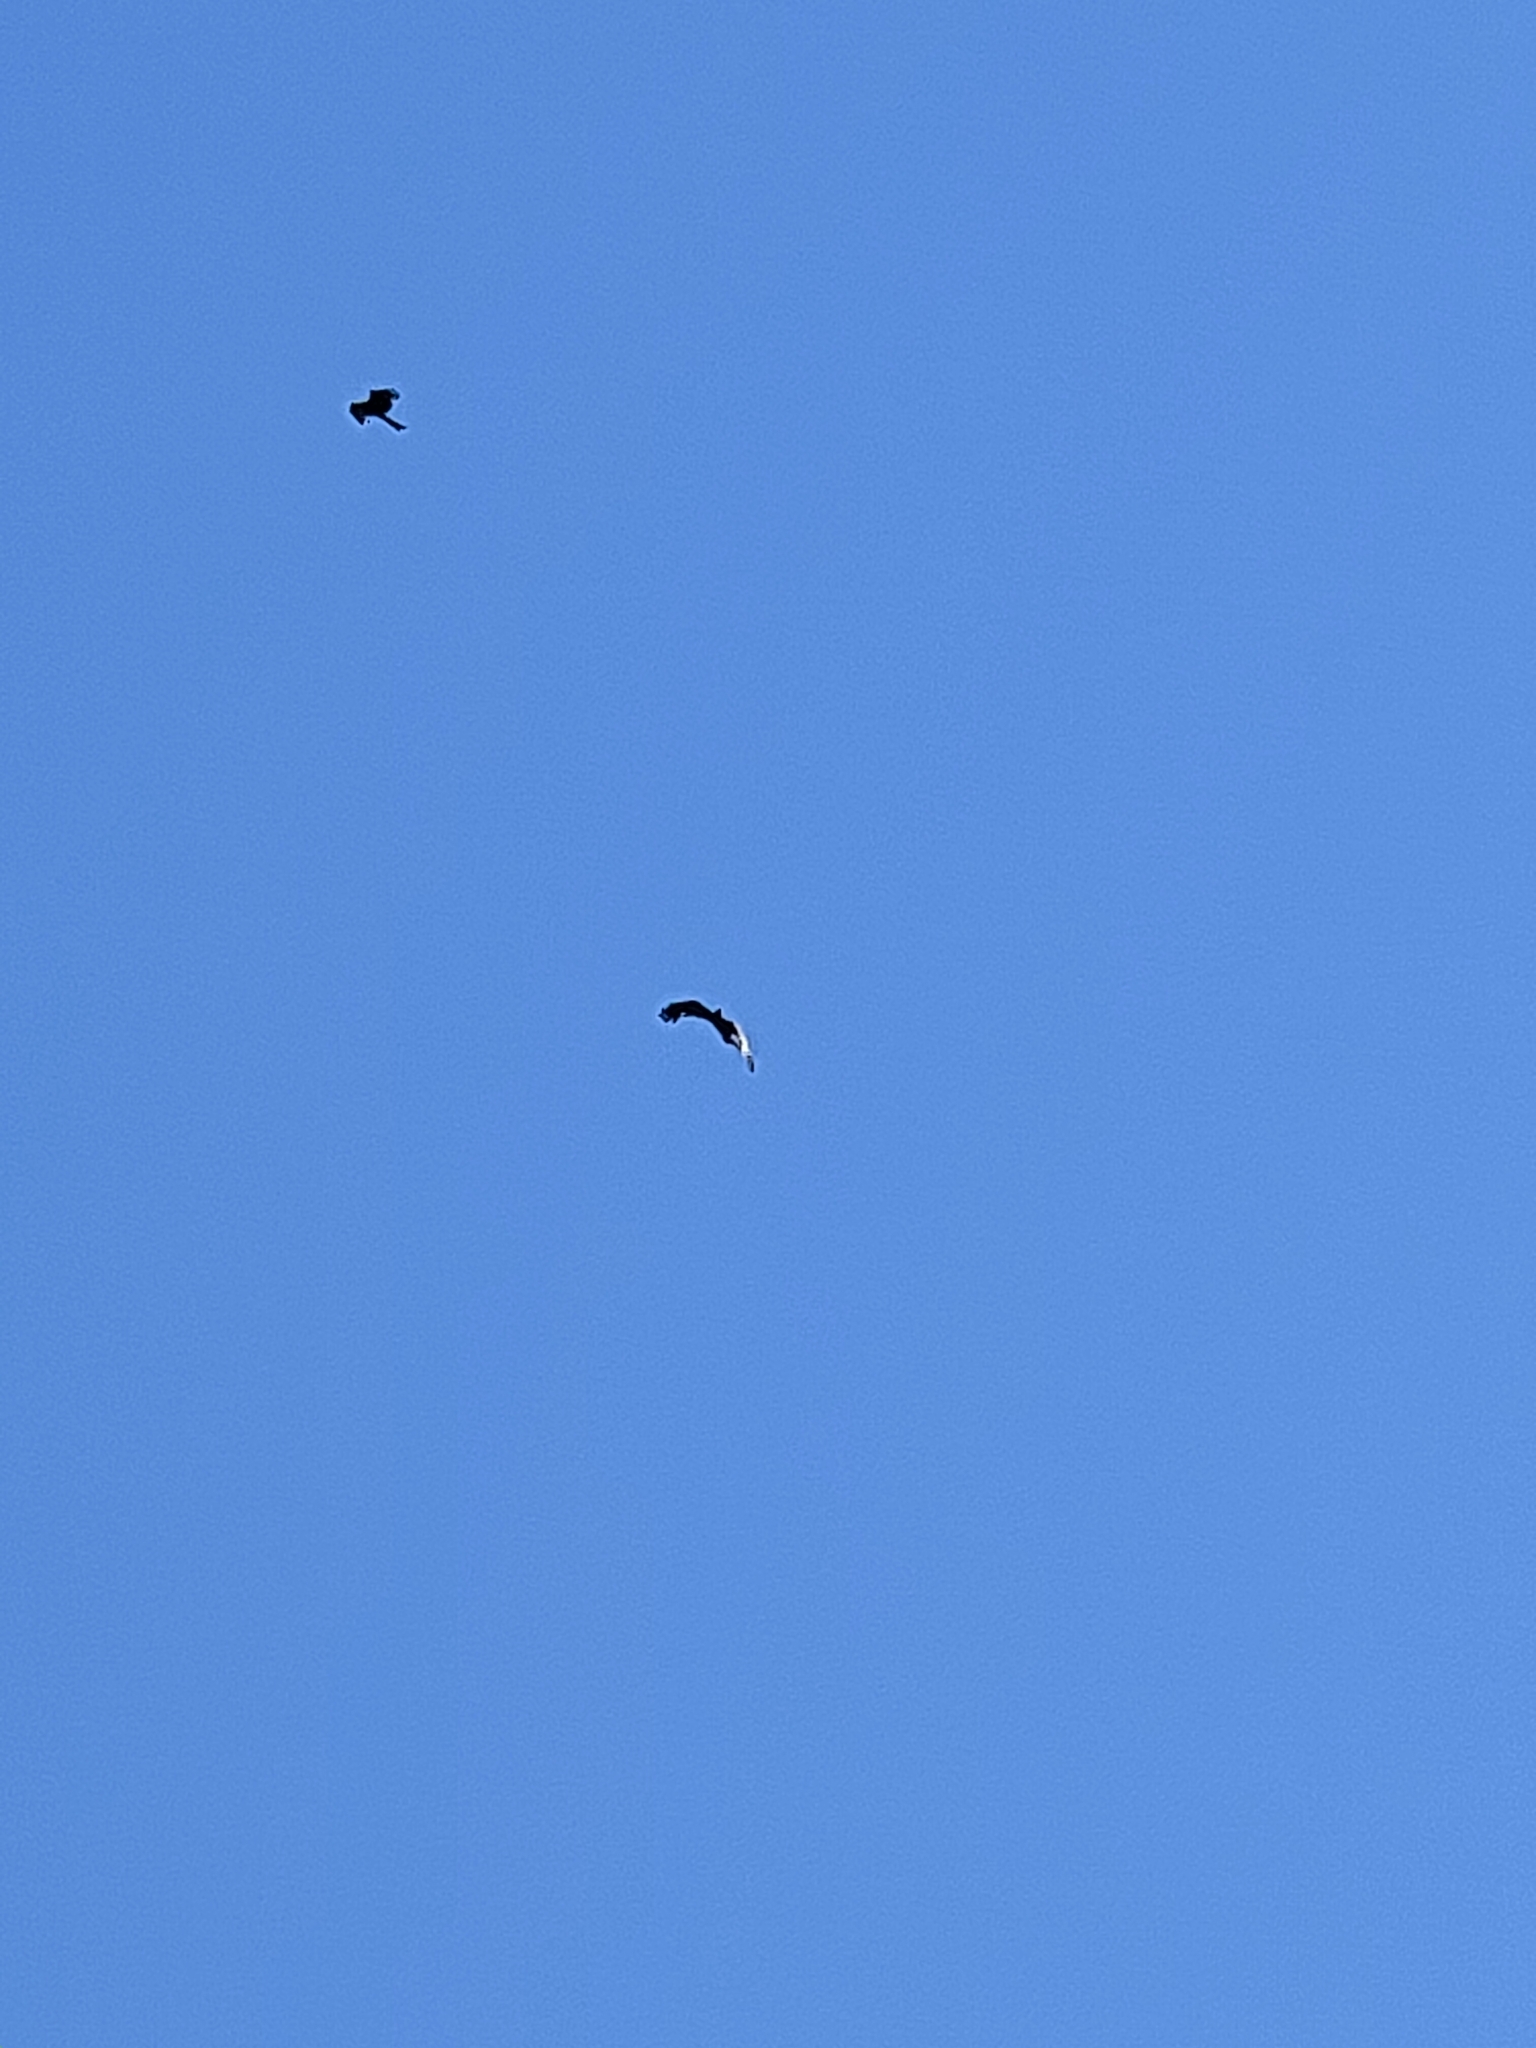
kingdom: Animalia
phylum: Chordata
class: Aves
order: Accipitriformes
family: Accipitridae
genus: Milvus
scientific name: Milvus migrans
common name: Black kite
